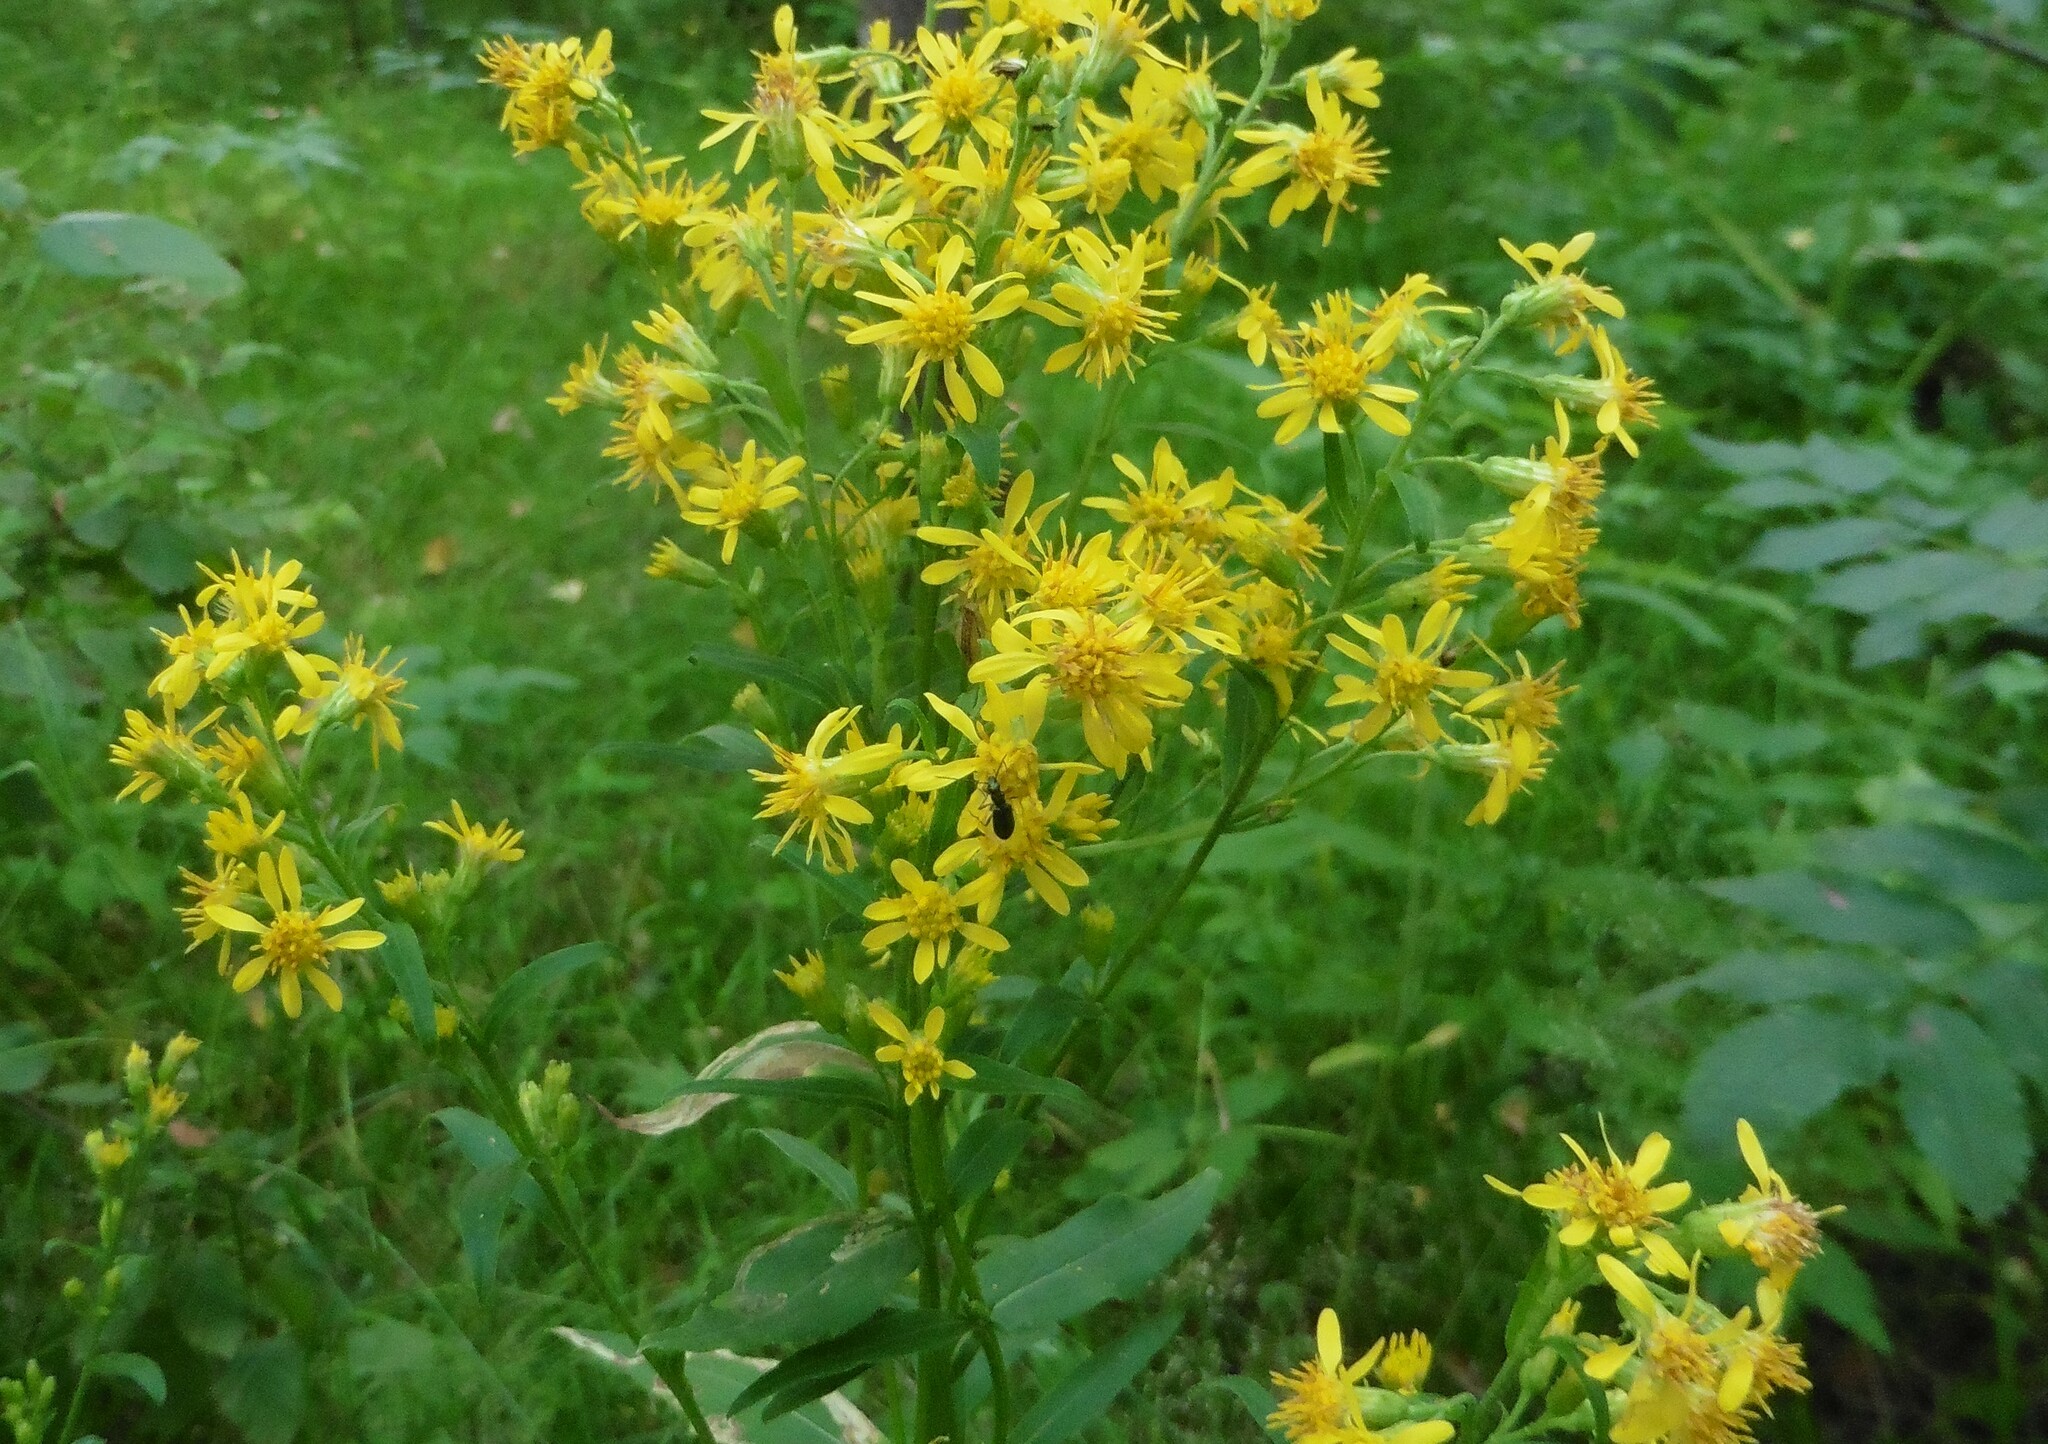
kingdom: Plantae
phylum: Tracheophyta
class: Magnoliopsida
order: Asterales
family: Asteraceae
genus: Solidago
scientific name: Solidago virgaurea
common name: Goldenrod
